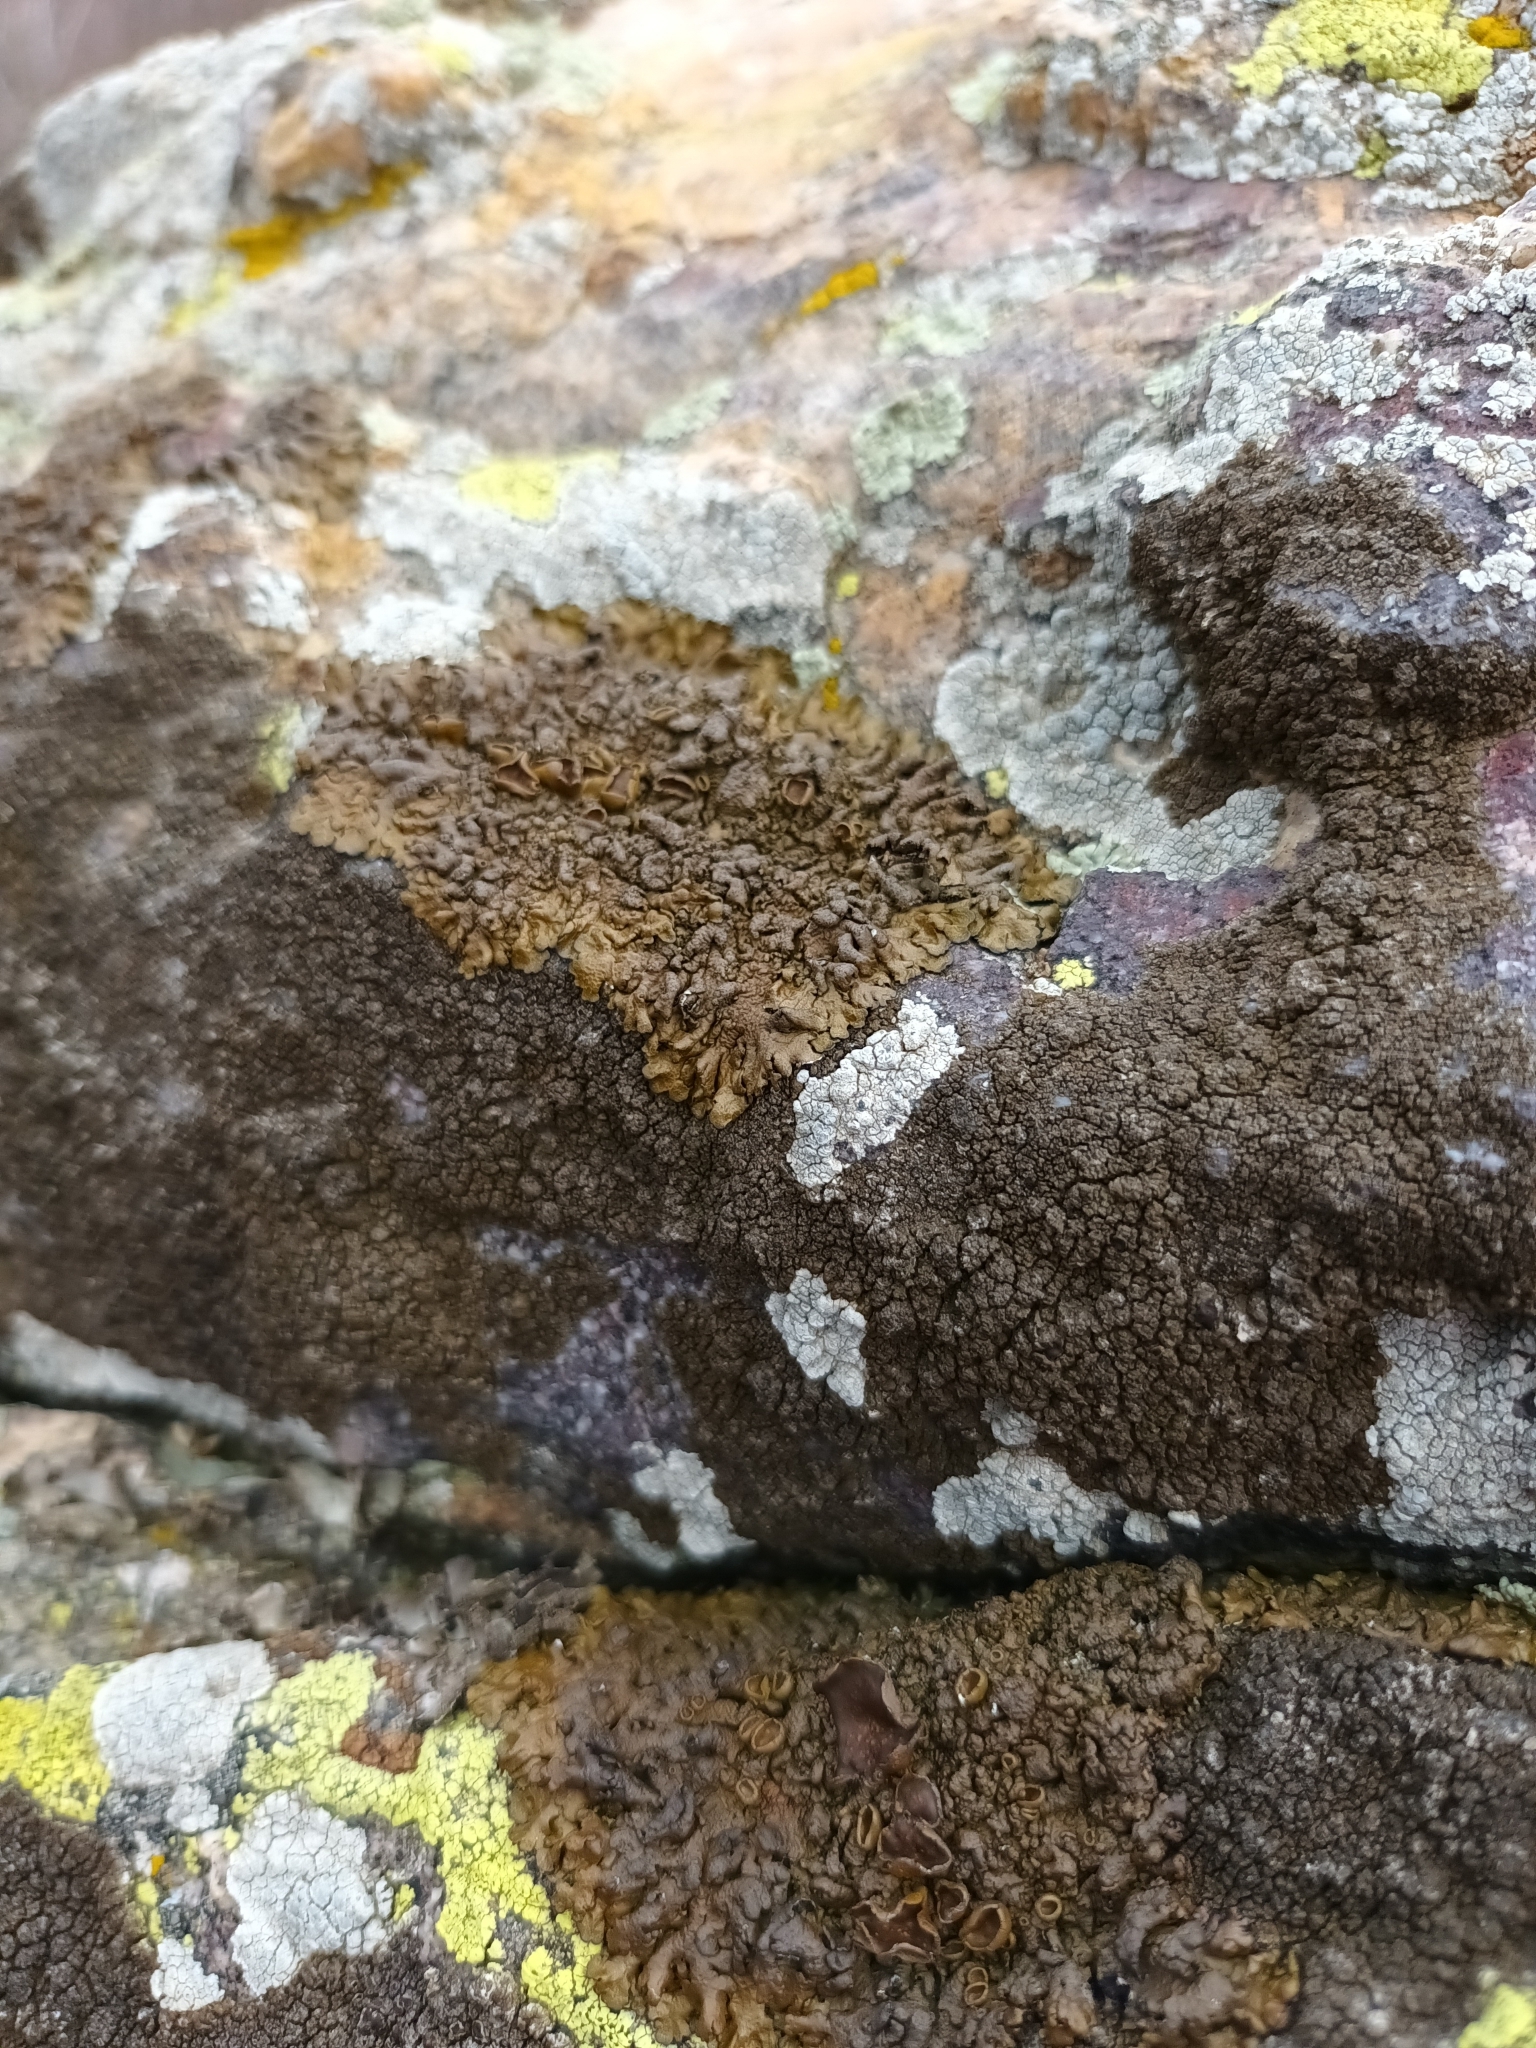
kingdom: Fungi
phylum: Ascomycota
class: Lecanoromycetes
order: Lecanorales
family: Parmeliaceae
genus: Xanthoparmelia
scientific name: Xanthoparmelia pulla
